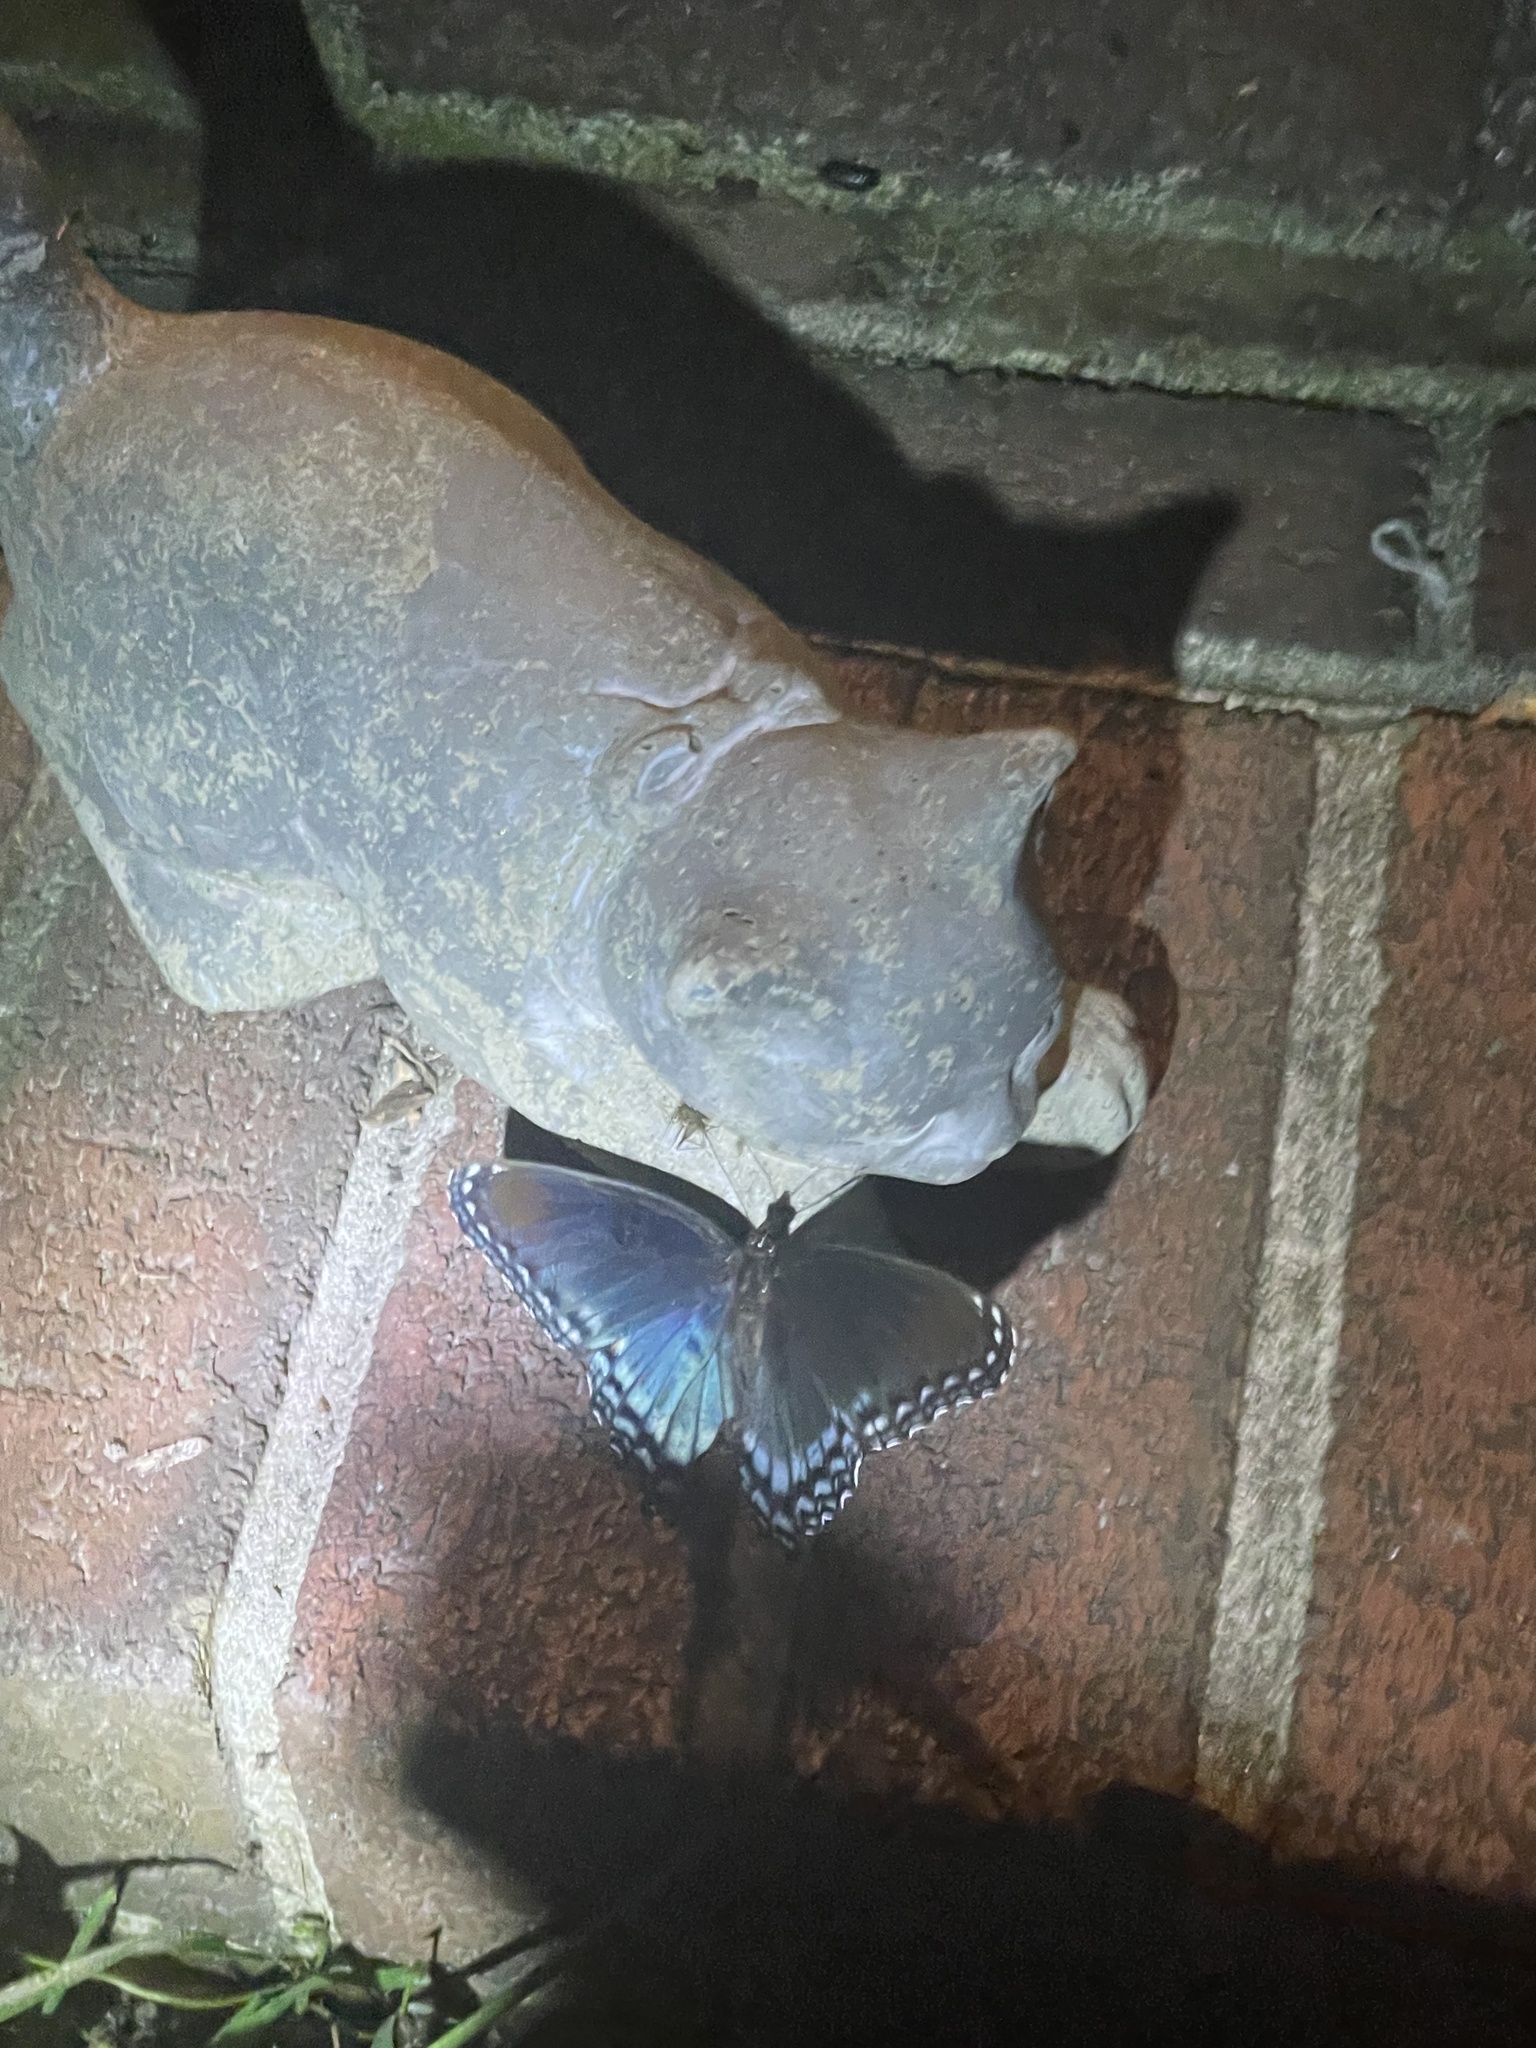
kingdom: Animalia
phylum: Arthropoda
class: Insecta
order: Lepidoptera
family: Nymphalidae
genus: Limenitis
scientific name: Limenitis astyanax
